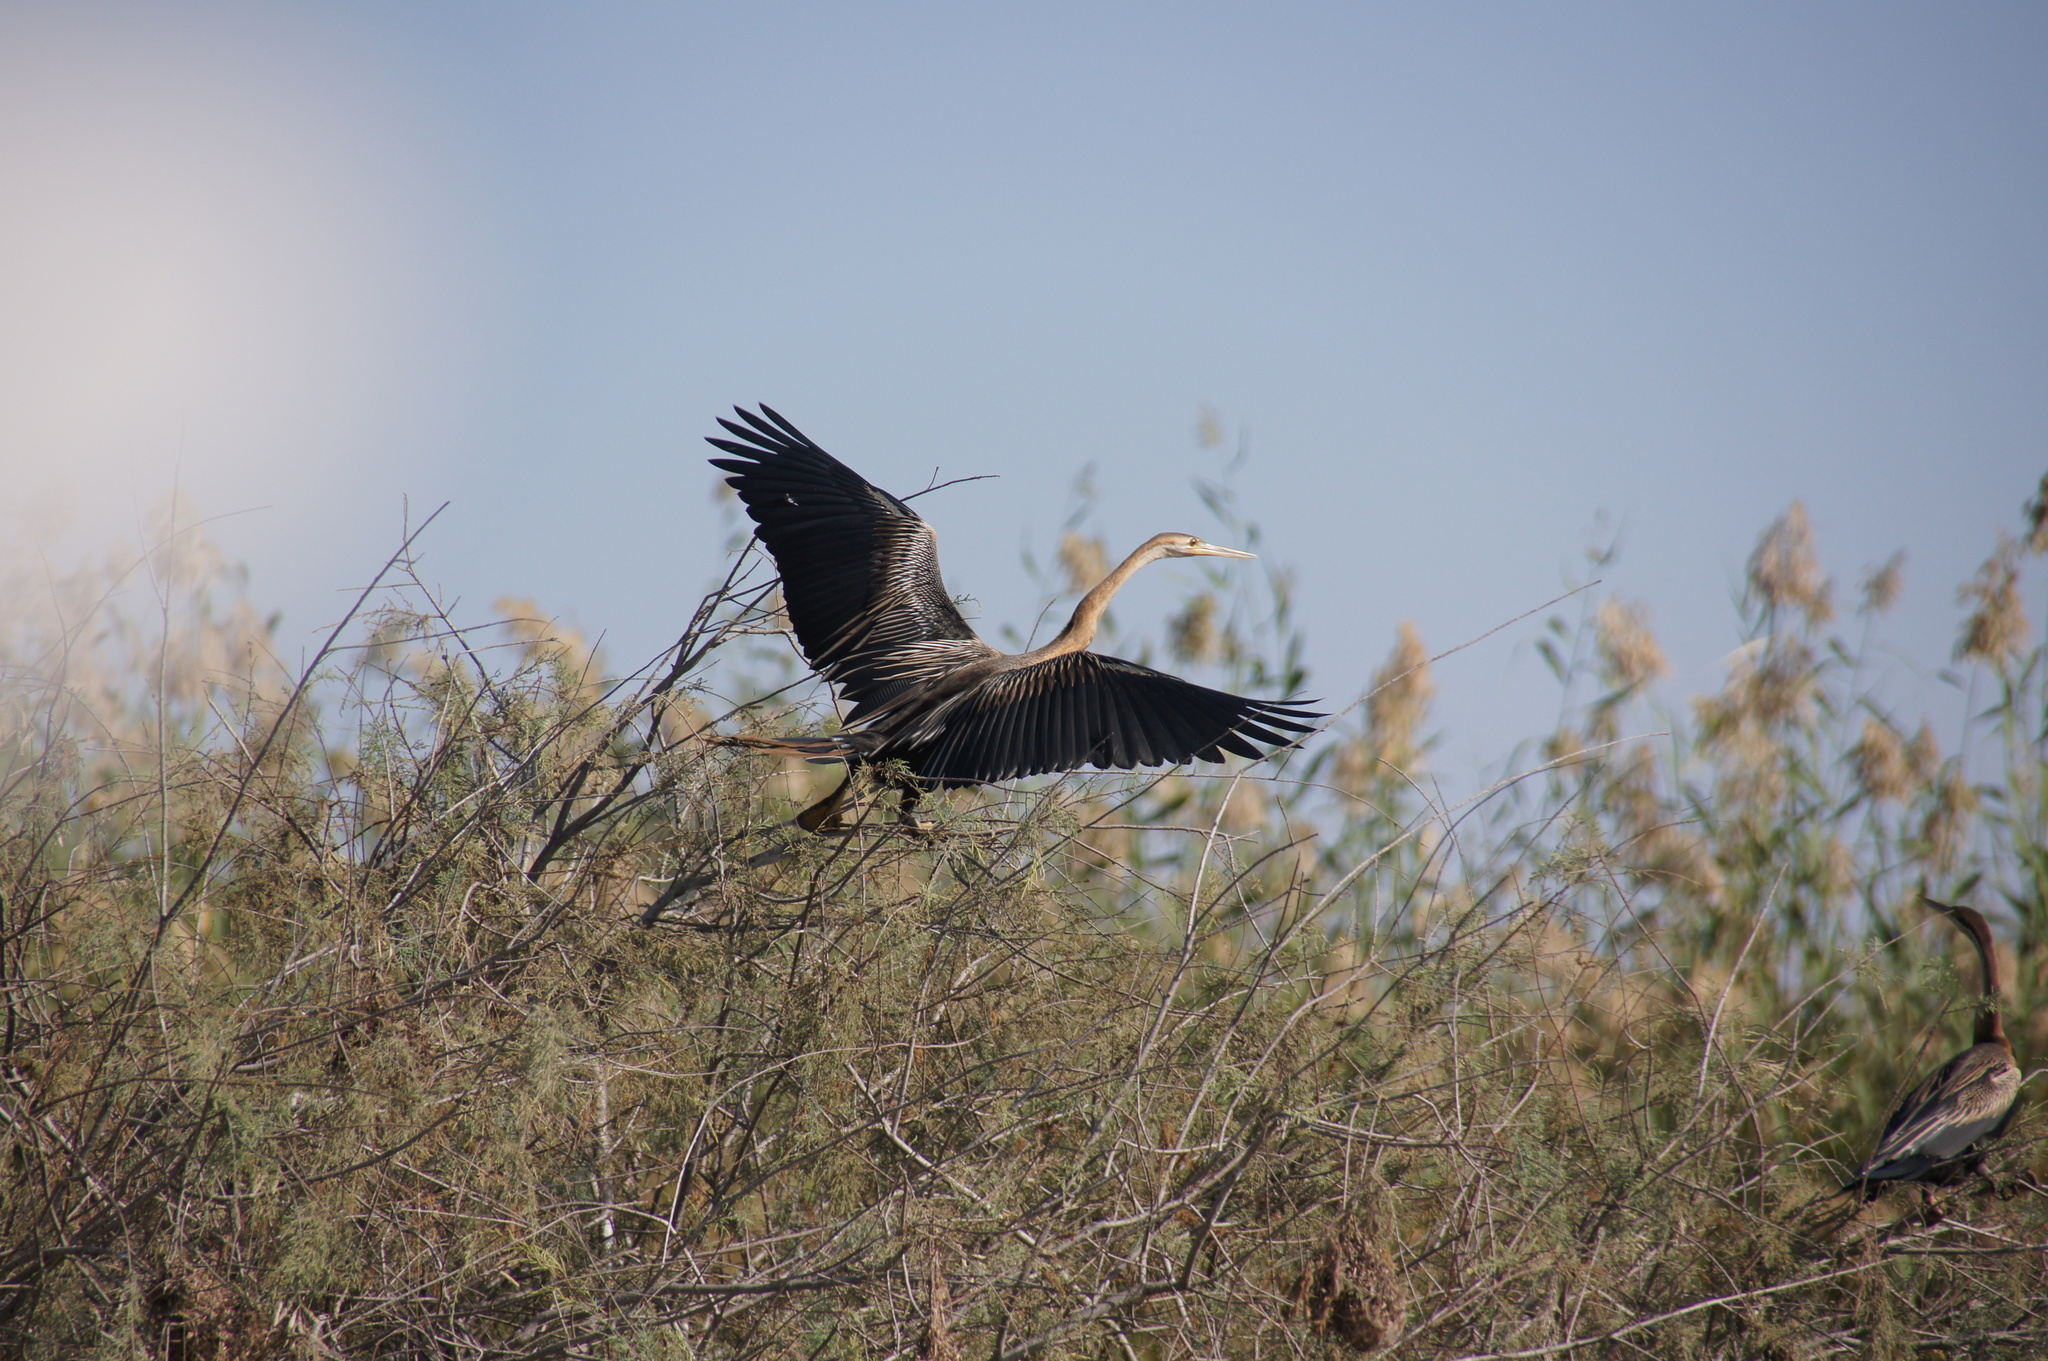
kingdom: Animalia
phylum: Chordata
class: Aves
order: Suliformes
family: Anhingidae
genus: Anhinga
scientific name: Anhinga rufa
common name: African darter
